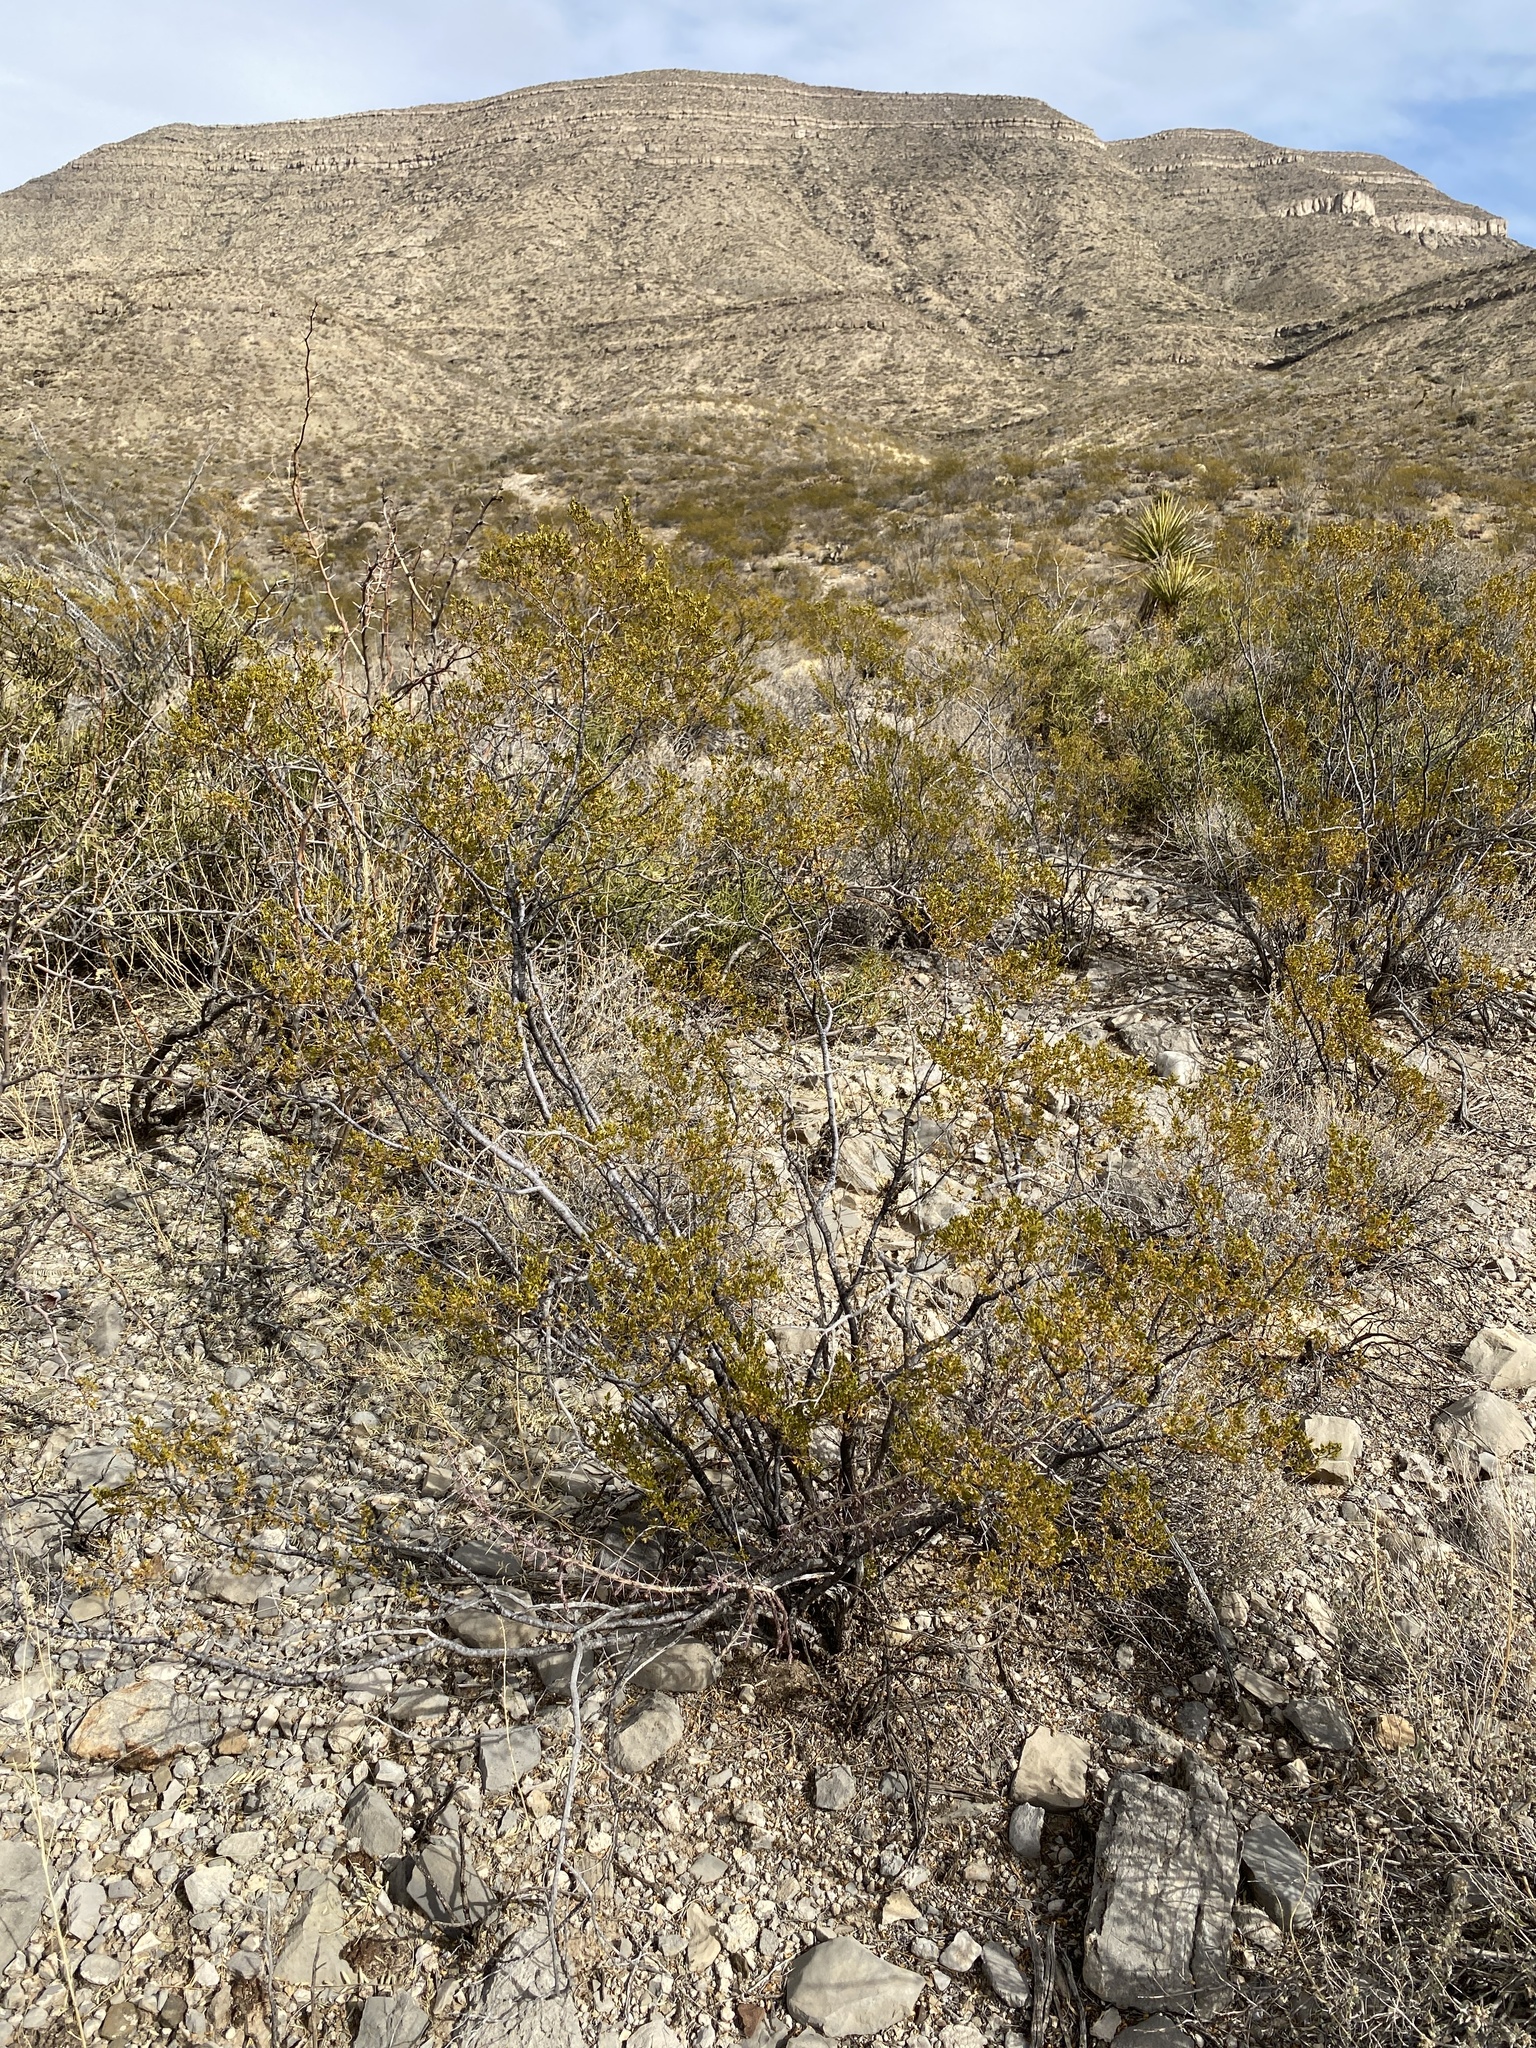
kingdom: Plantae
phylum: Tracheophyta
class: Magnoliopsida
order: Zygophyllales
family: Zygophyllaceae
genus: Larrea
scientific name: Larrea tridentata
